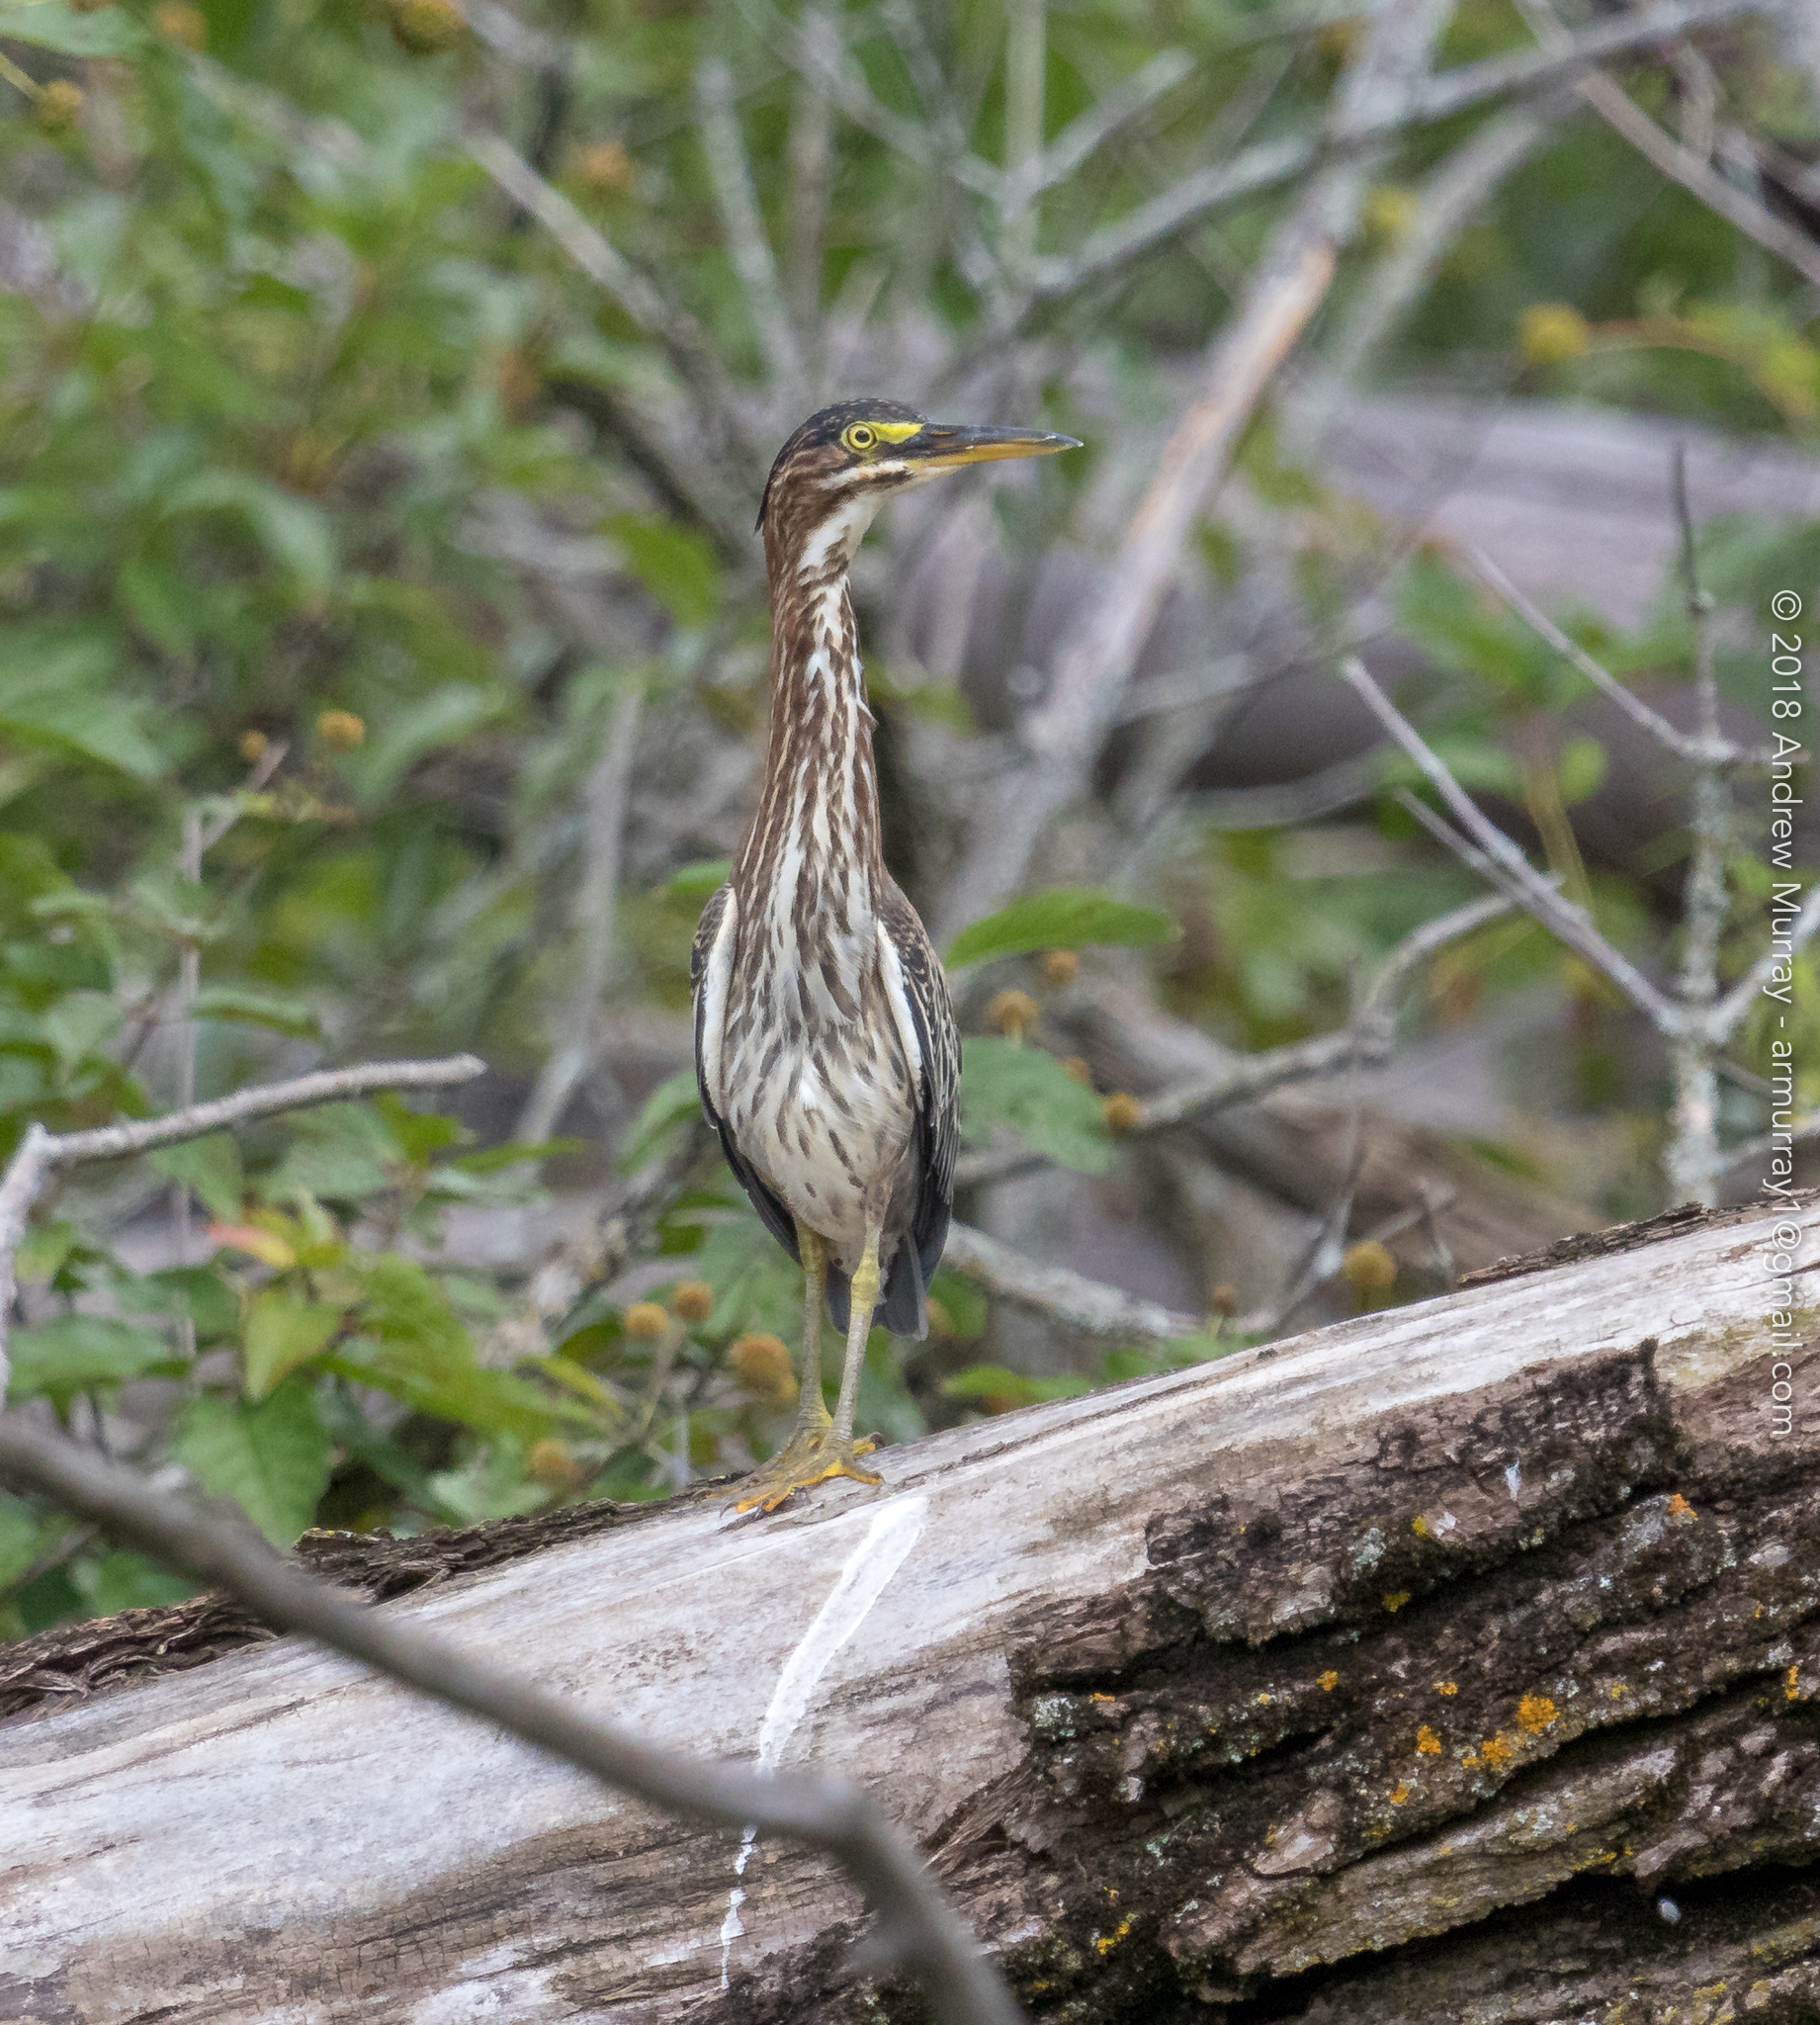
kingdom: Animalia
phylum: Chordata
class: Aves
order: Pelecaniformes
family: Ardeidae
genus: Butorides
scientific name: Butorides virescens
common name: Green heron
